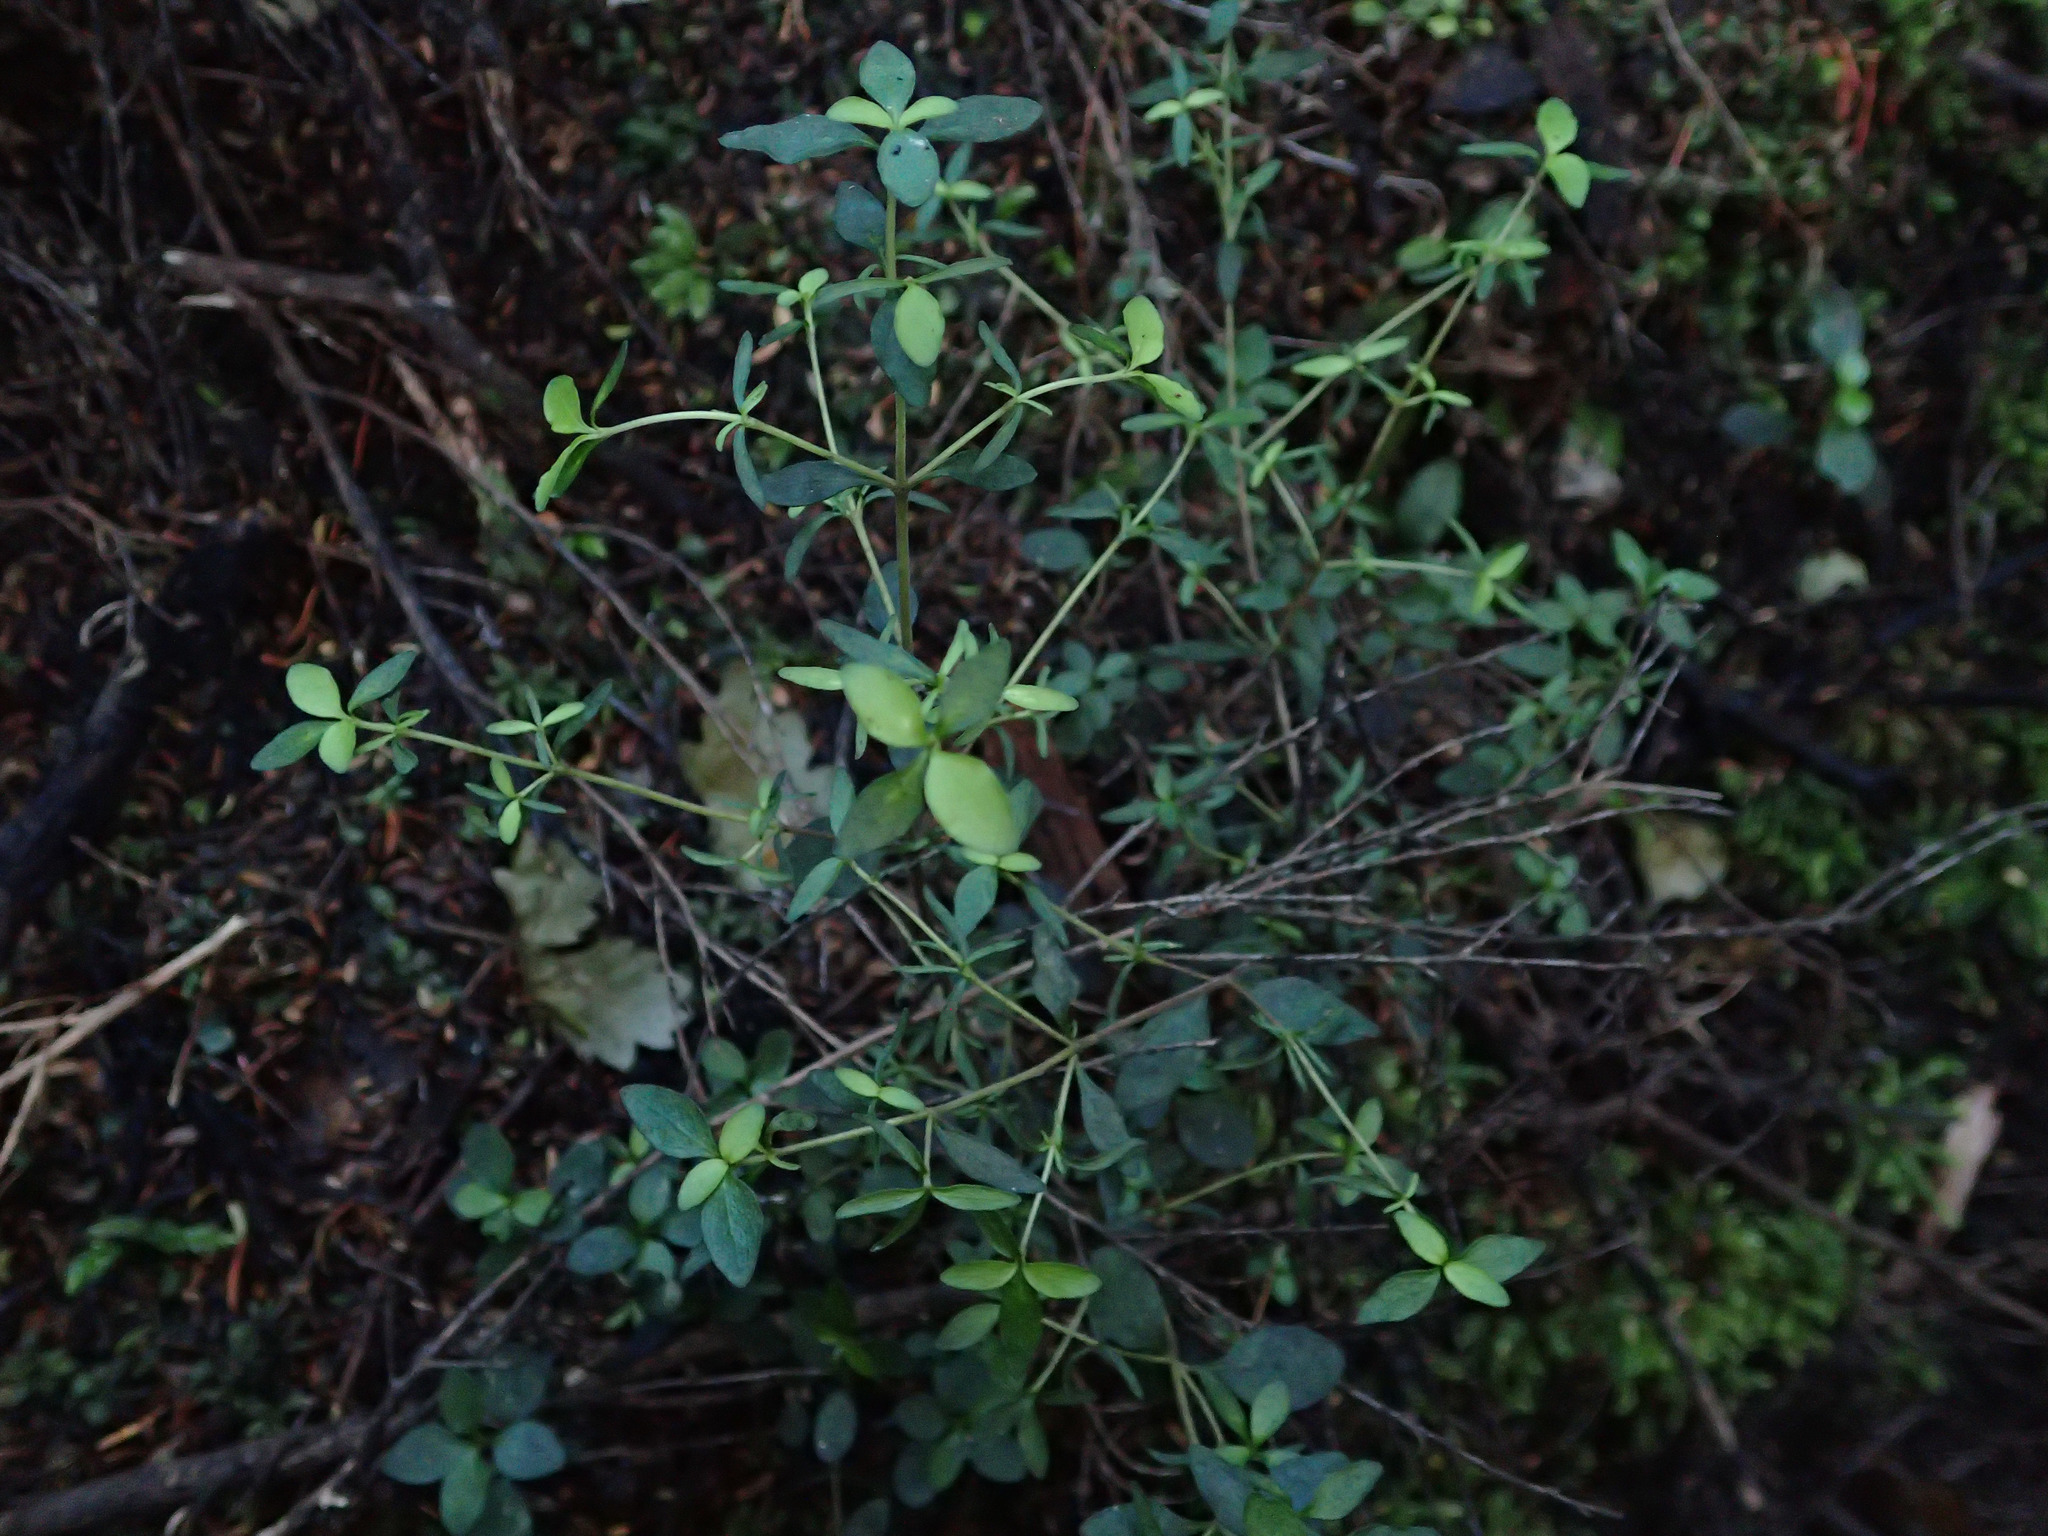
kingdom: Plantae
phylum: Tracheophyta
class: Magnoliopsida
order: Gentianales
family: Rubiaceae
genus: Coprosma
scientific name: Coprosma rhamnoides
